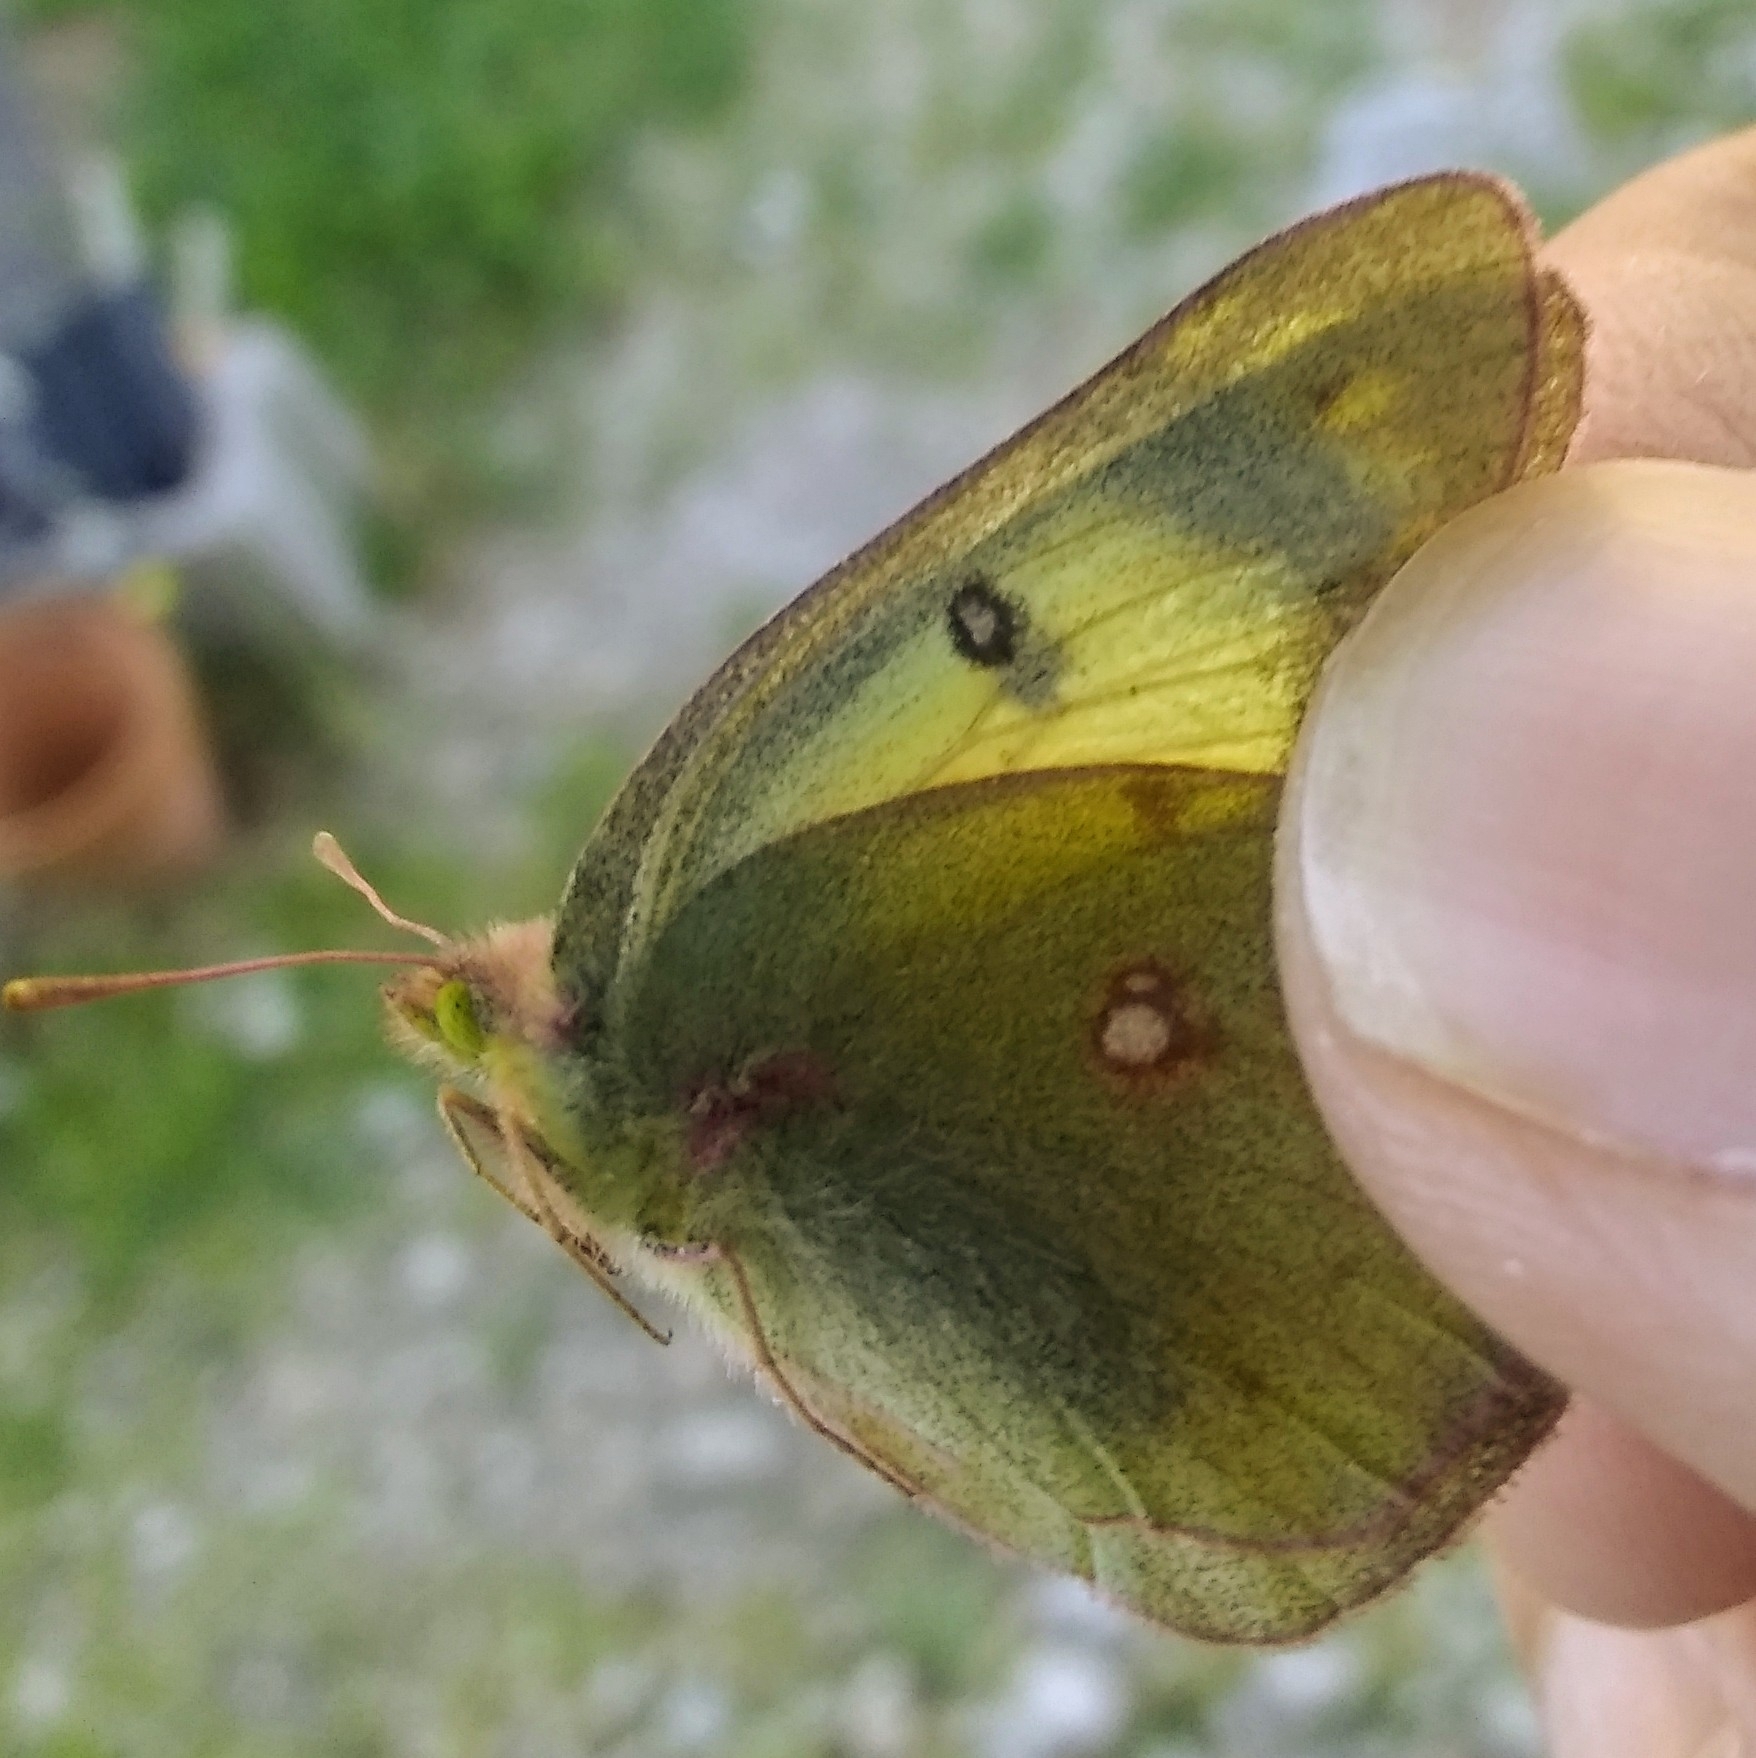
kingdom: Animalia
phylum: Arthropoda
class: Insecta
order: Lepidoptera
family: Pieridae
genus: Colias
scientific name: Colias philodice
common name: Clouded sulphur
